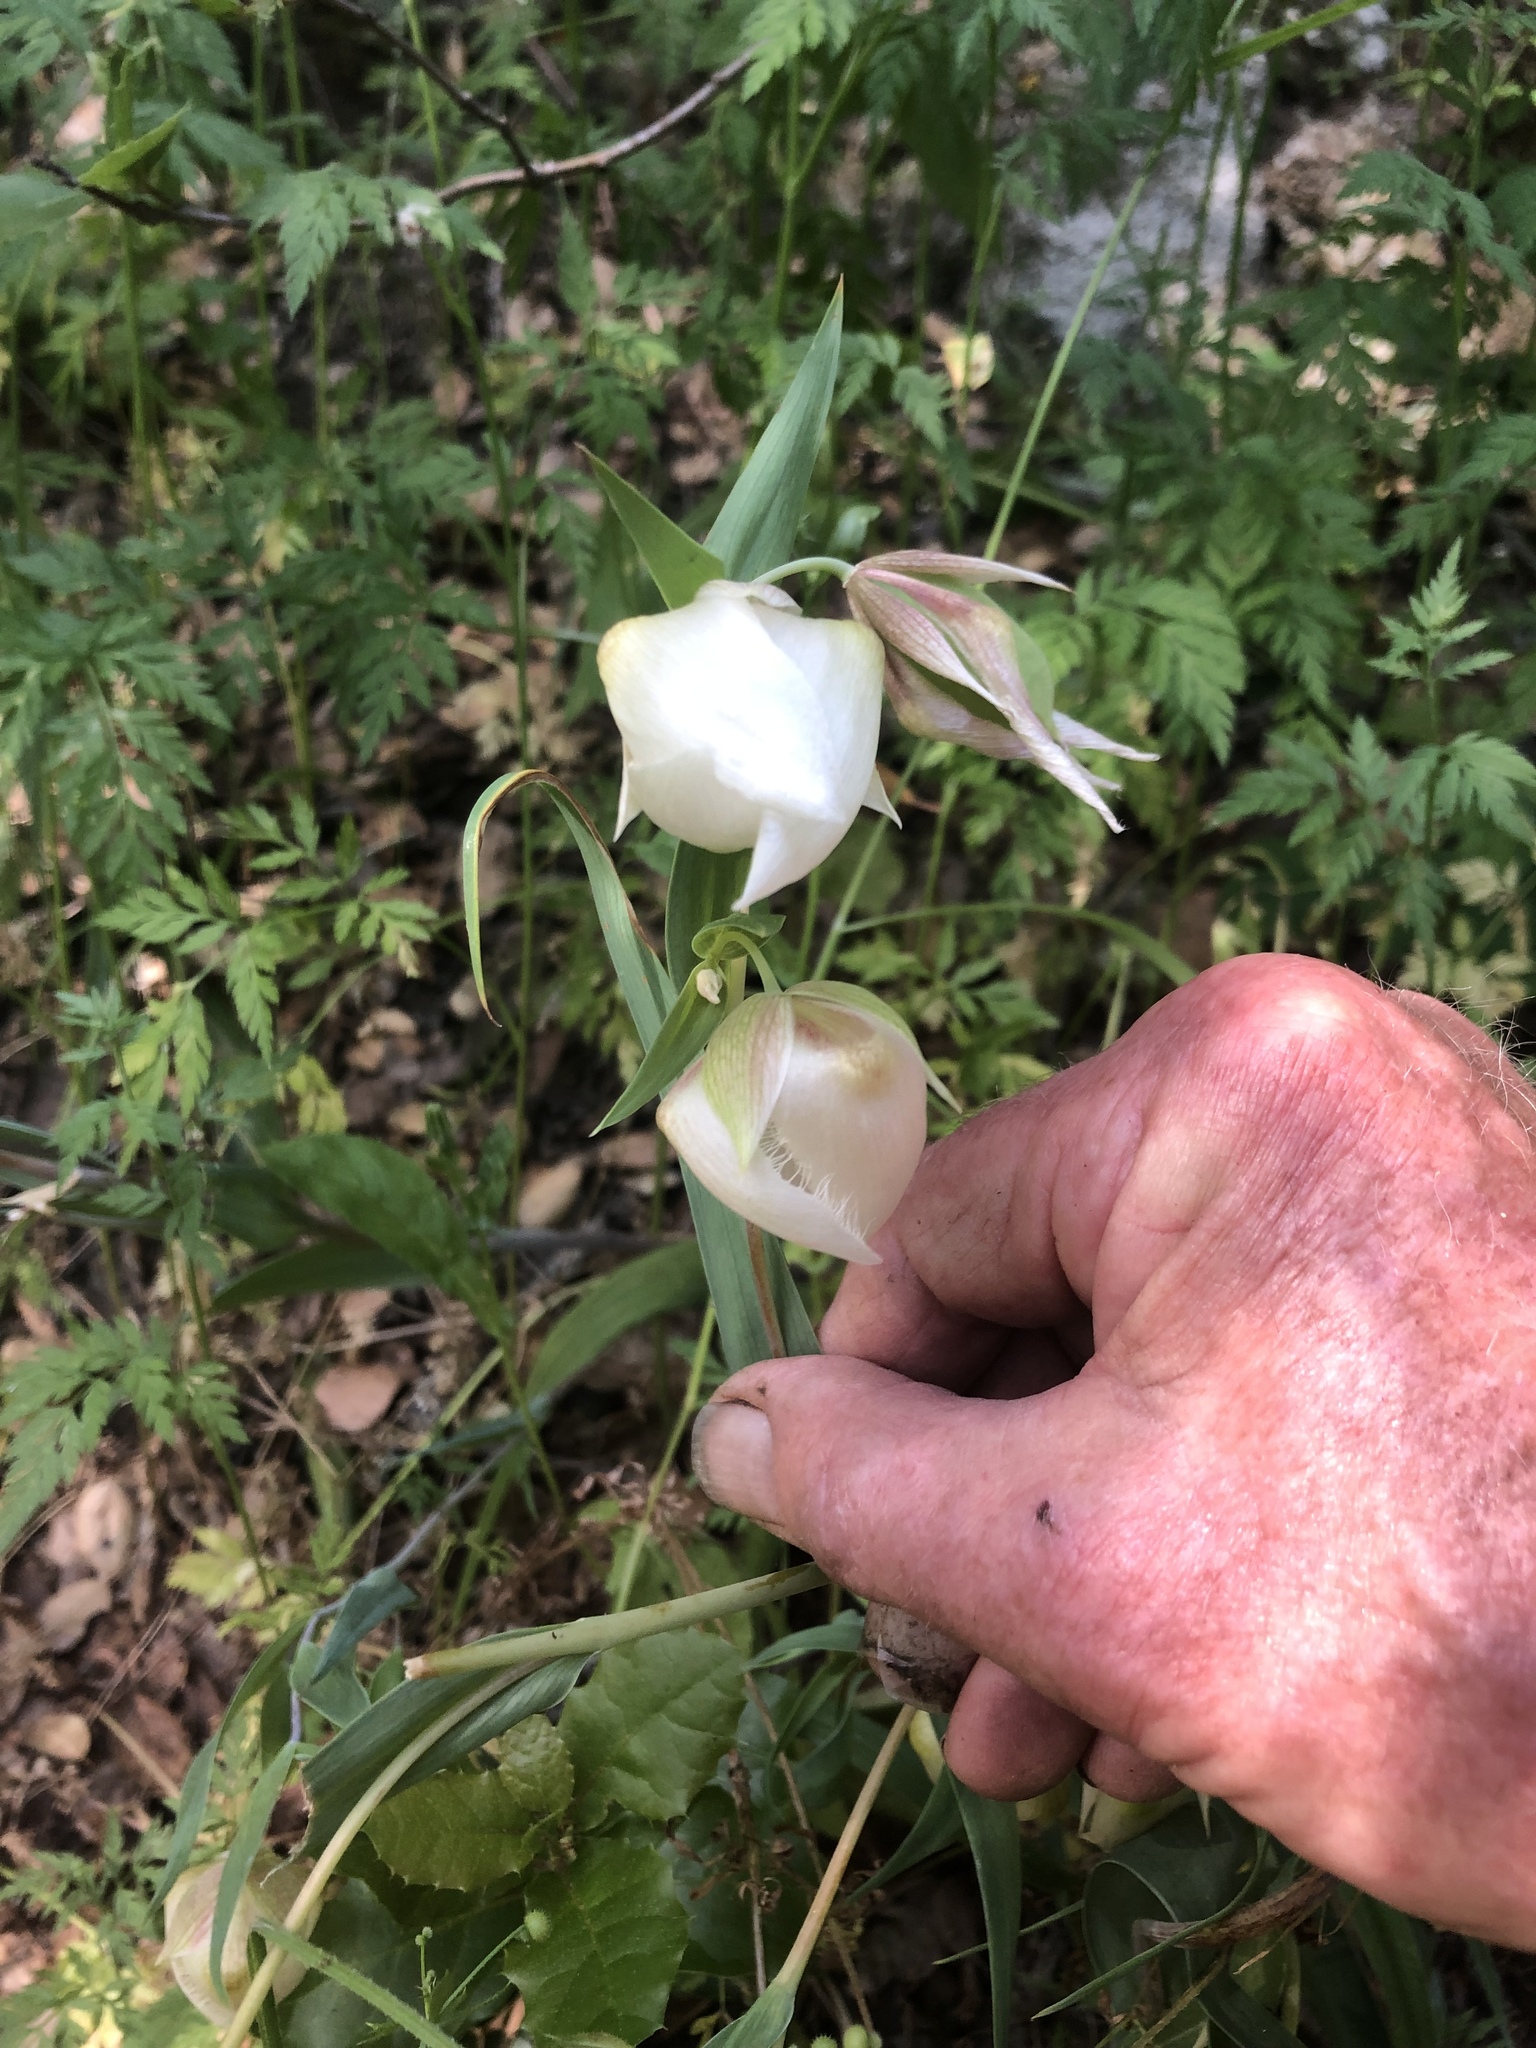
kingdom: Plantae
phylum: Tracheophyta
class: Liliopsida
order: Liliales
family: Liliaceae
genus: Calochortus
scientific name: Calochortus albus
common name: Fairy-lantern
